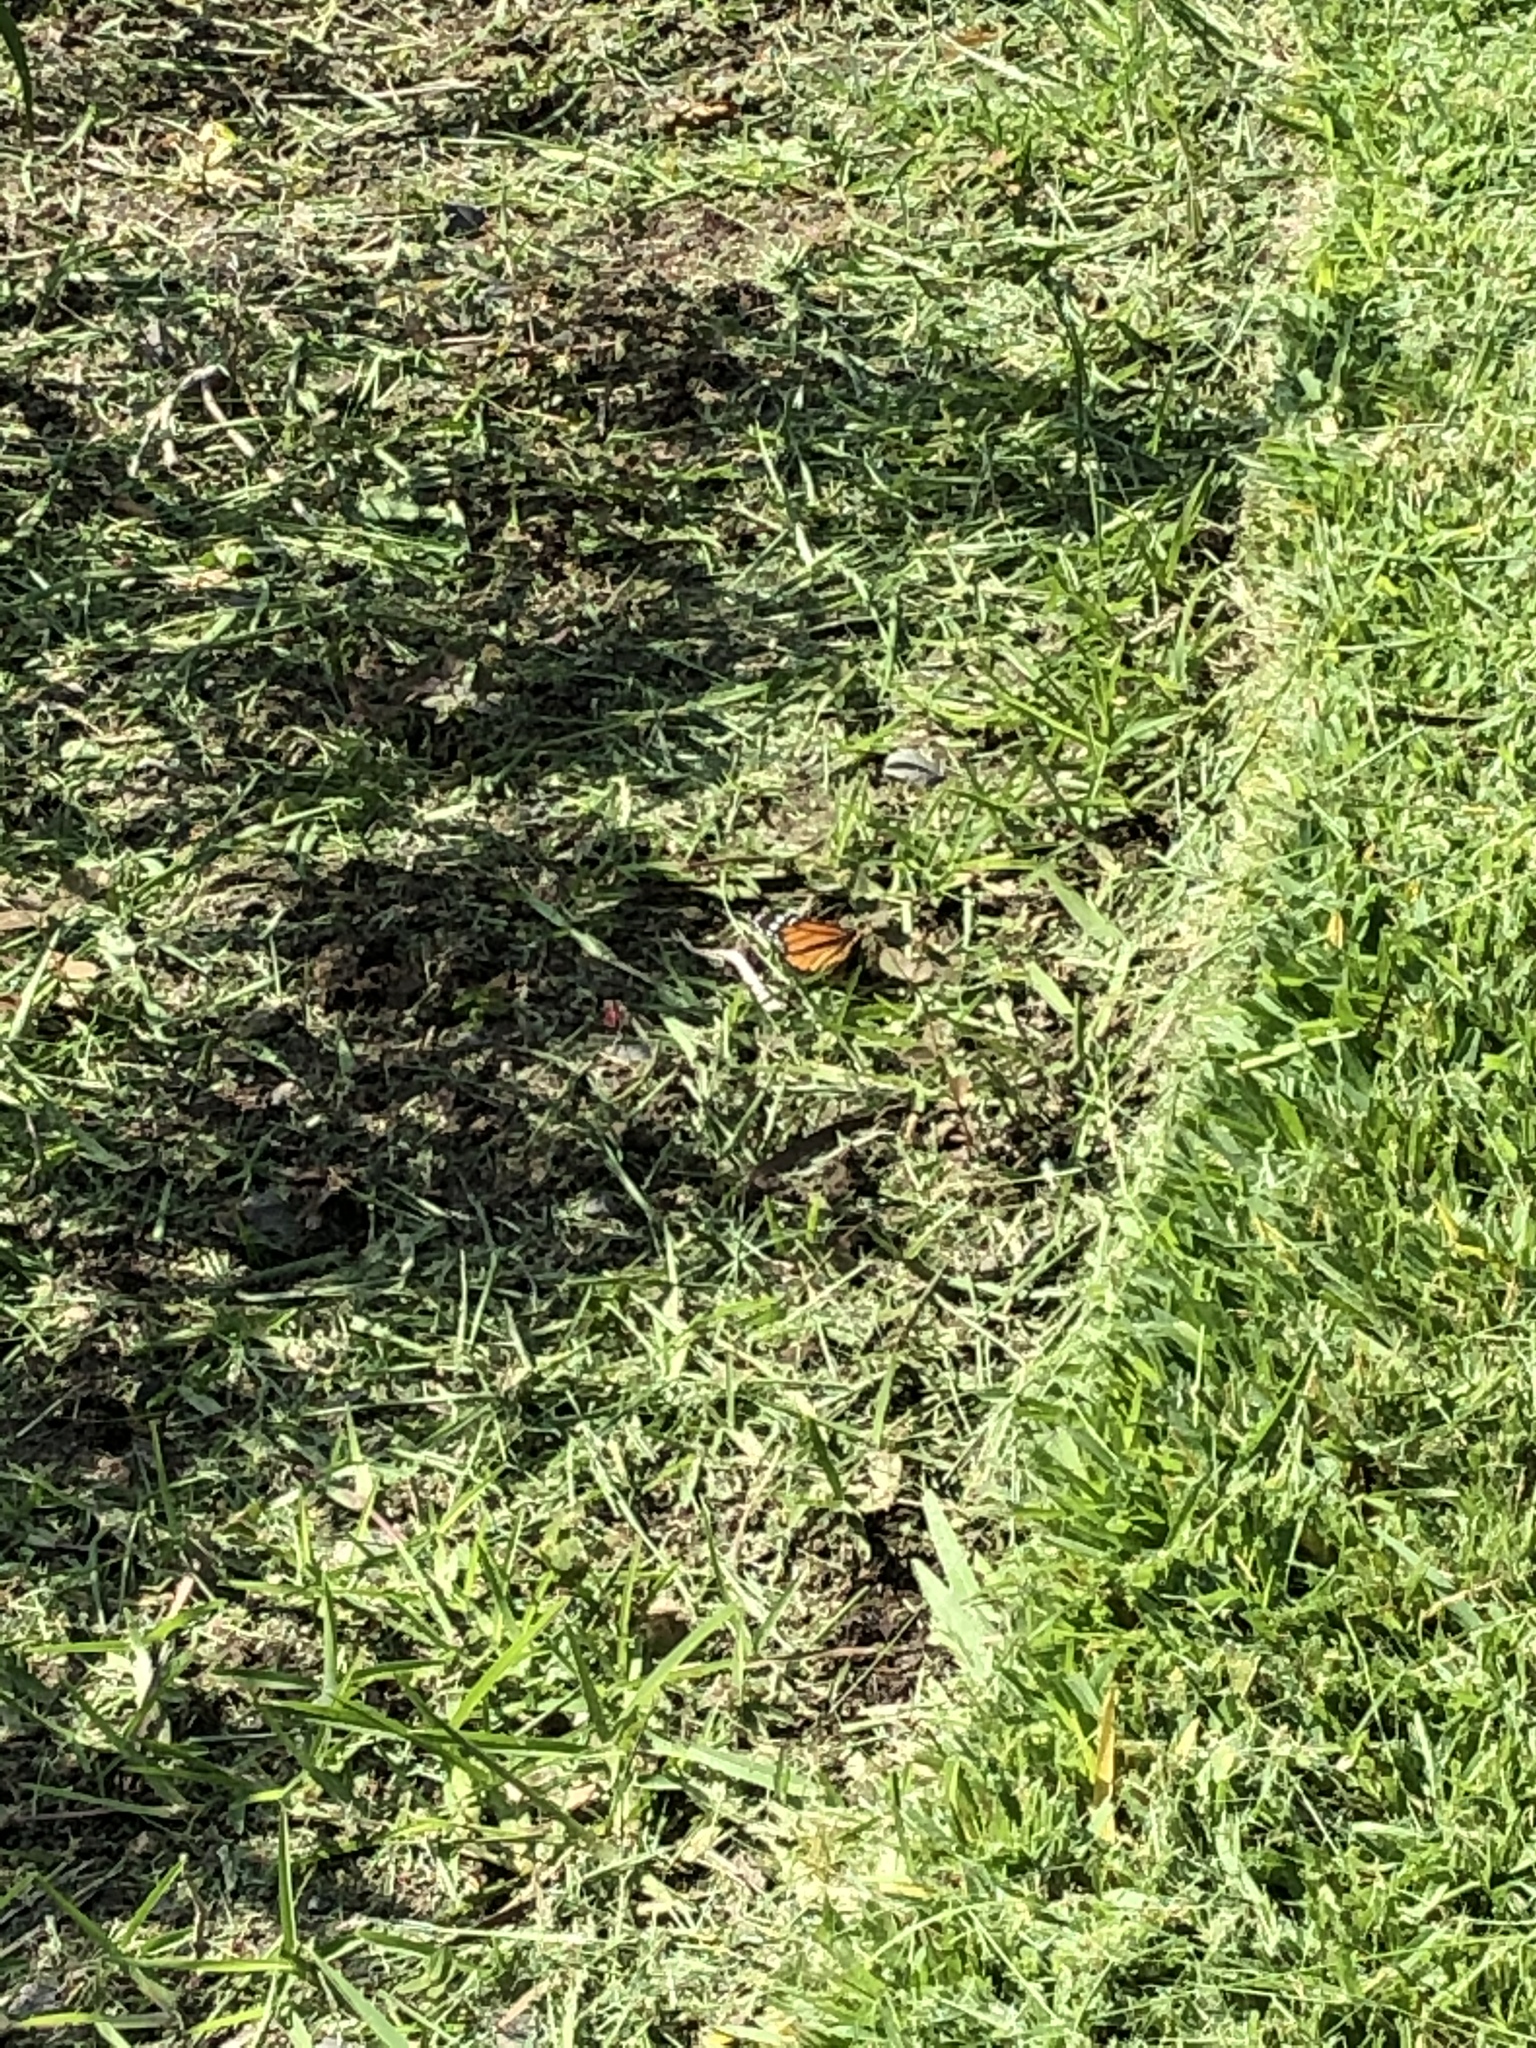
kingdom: Animalia
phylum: Arthropoda
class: Insecta
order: Lepidoptera
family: Nymphalidae
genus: Danaus
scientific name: Danaus plexippus
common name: Monarch
